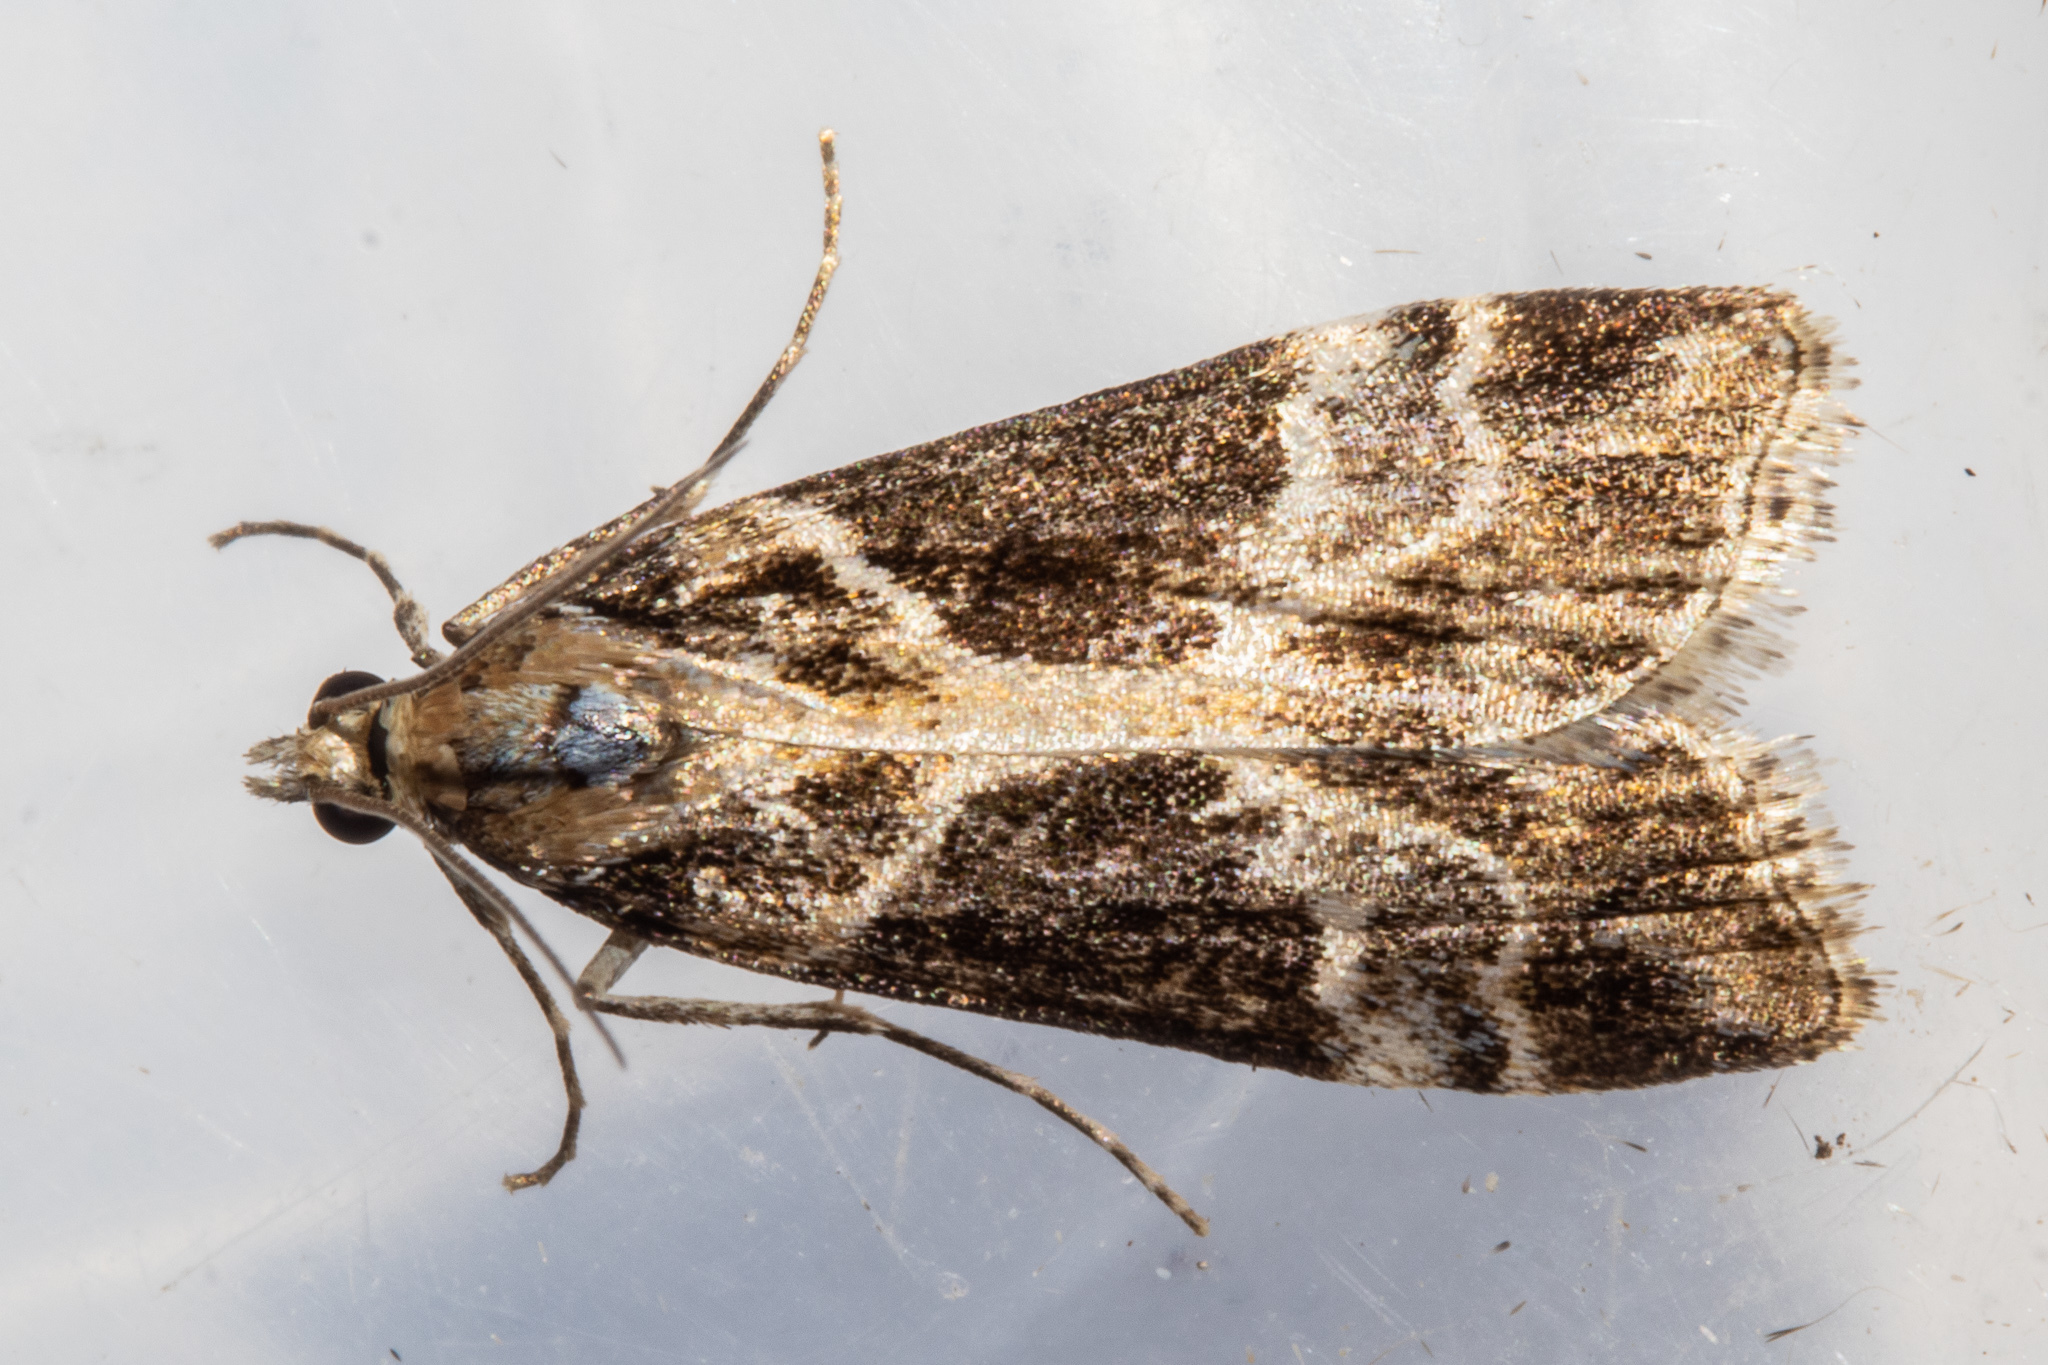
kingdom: Animalia
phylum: Arthropoda
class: Insecta
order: Lepidoptera
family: Crambidae
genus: Eudonia
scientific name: Eudonia melanaegis
